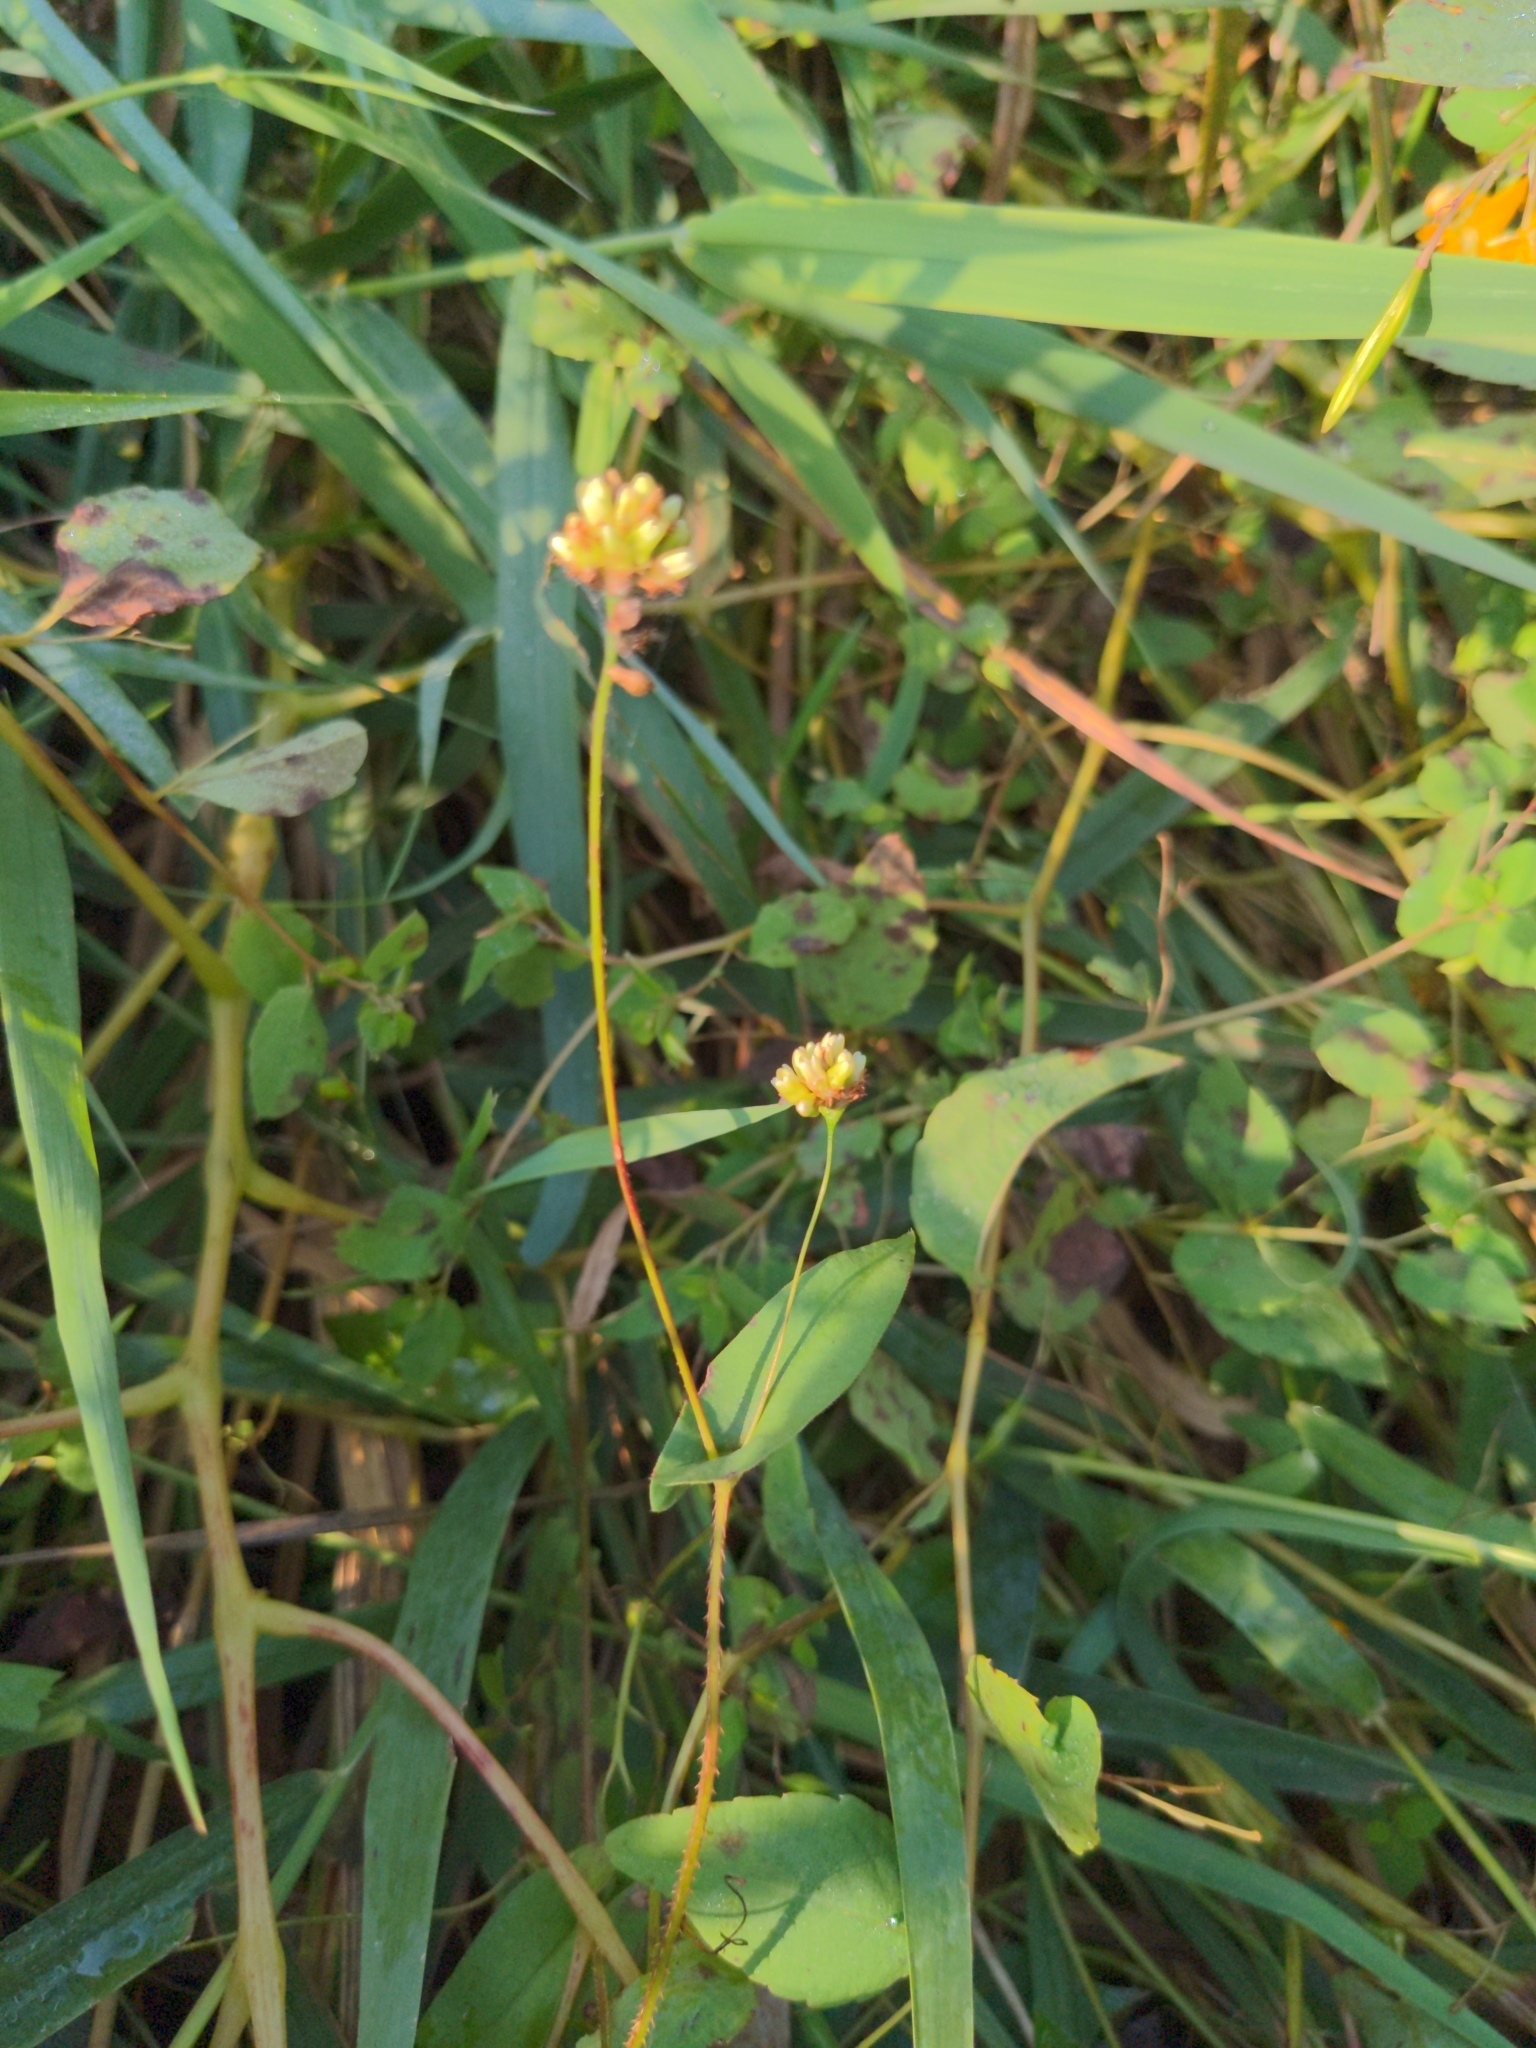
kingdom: Plantae
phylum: Tracheophyta
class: Magnoliopsida
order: Caryophyllales
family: Polygonaceae
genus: Persicaria
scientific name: Persicaria sagittata
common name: American tearthumb
